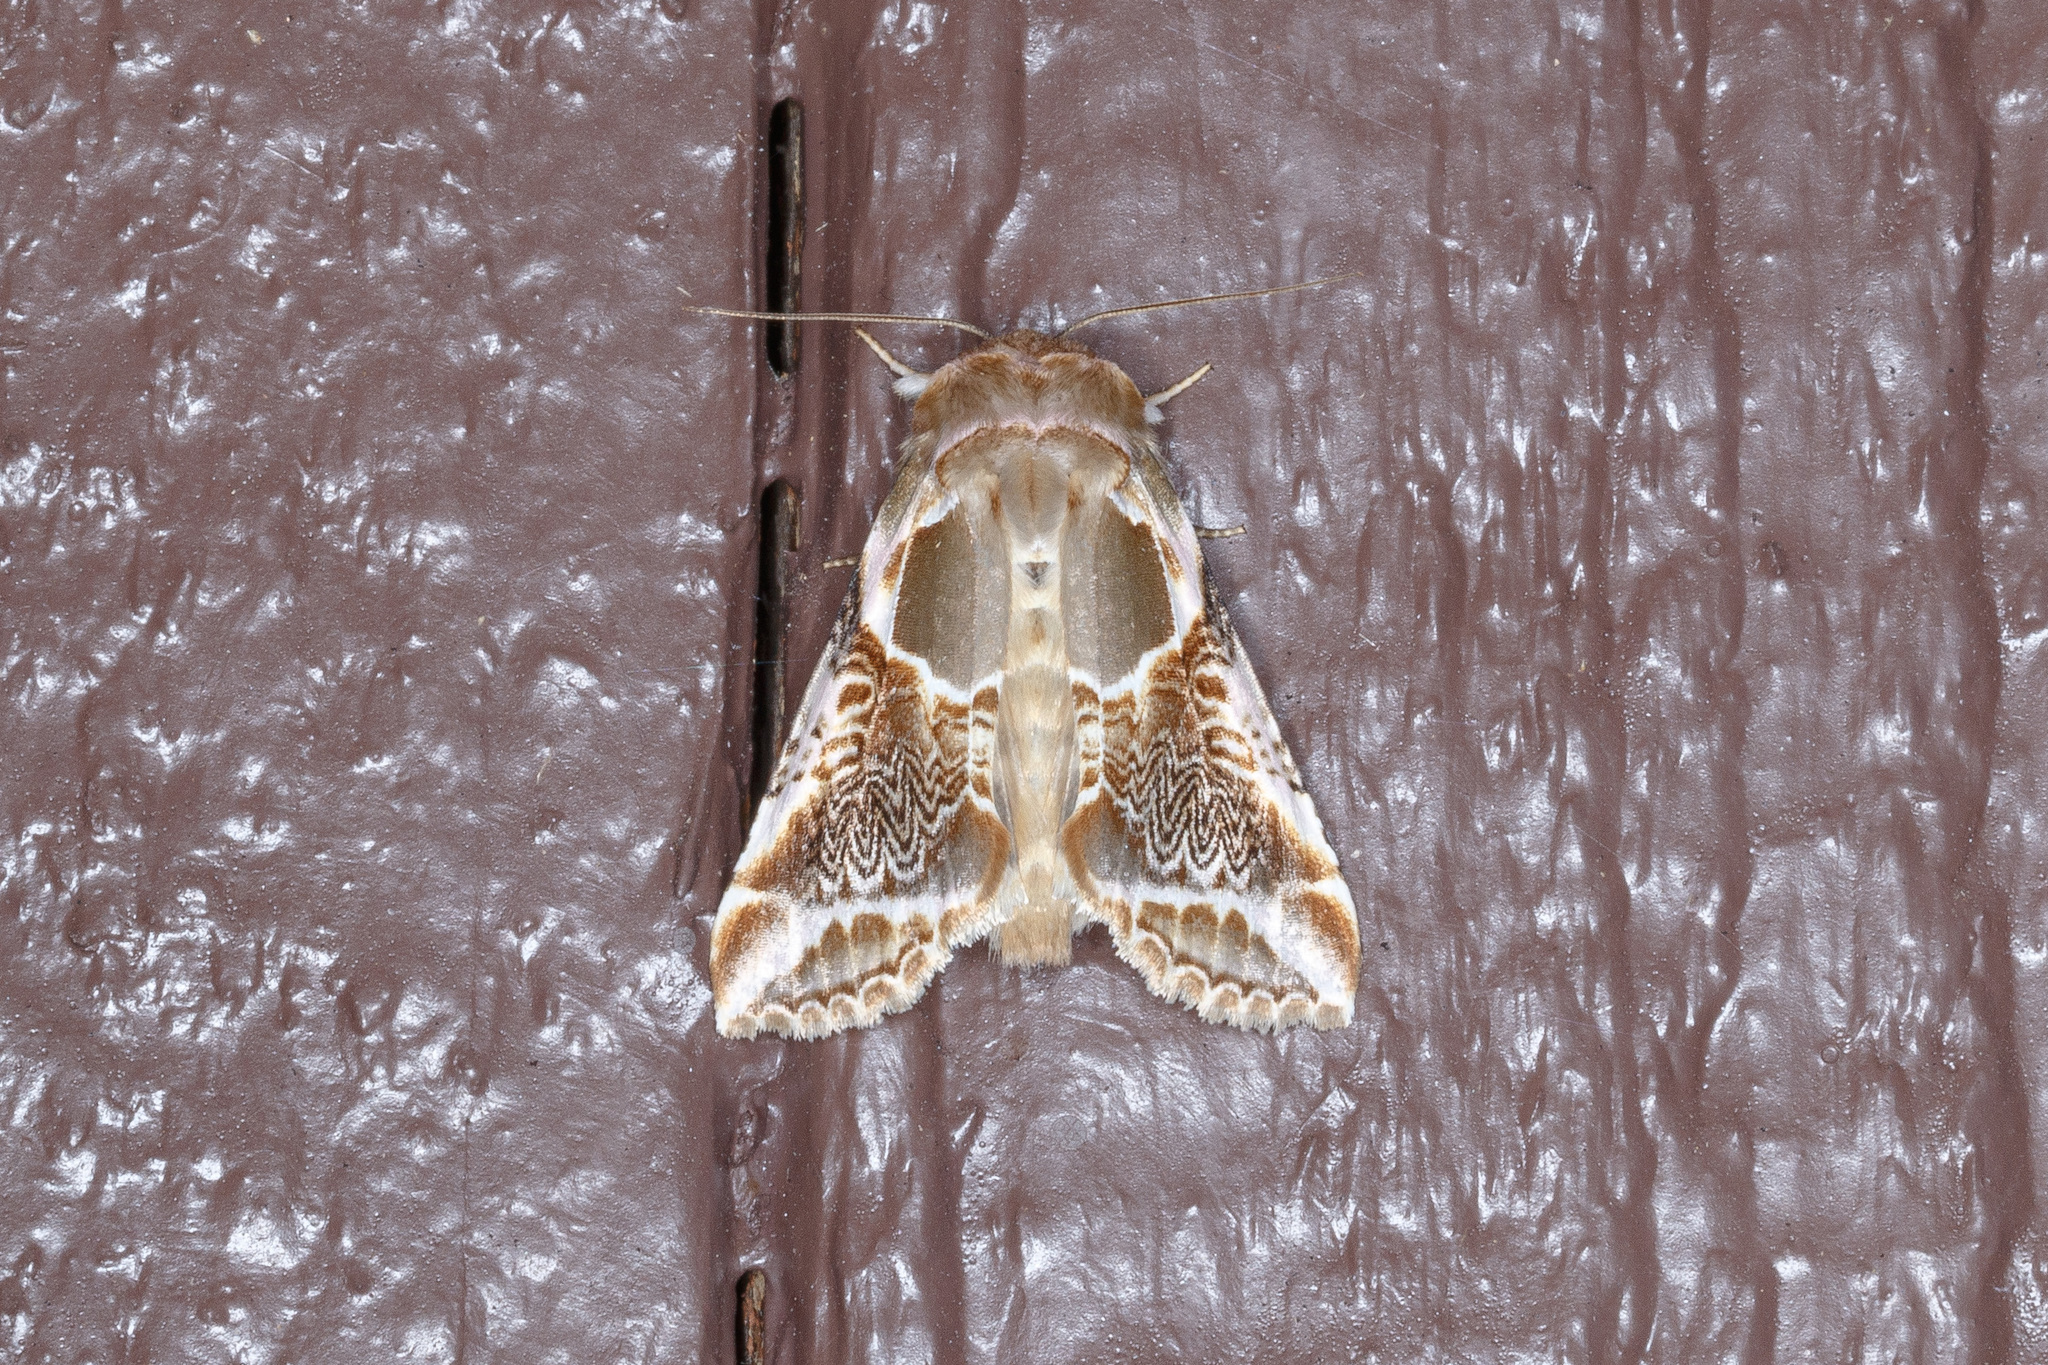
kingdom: Animalia
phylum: Arthropoda
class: Insecta
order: Lepidoptera
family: Drepanidae
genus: Habrosyne
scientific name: Habrosyne scripta
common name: Lettered habrosyne moth
